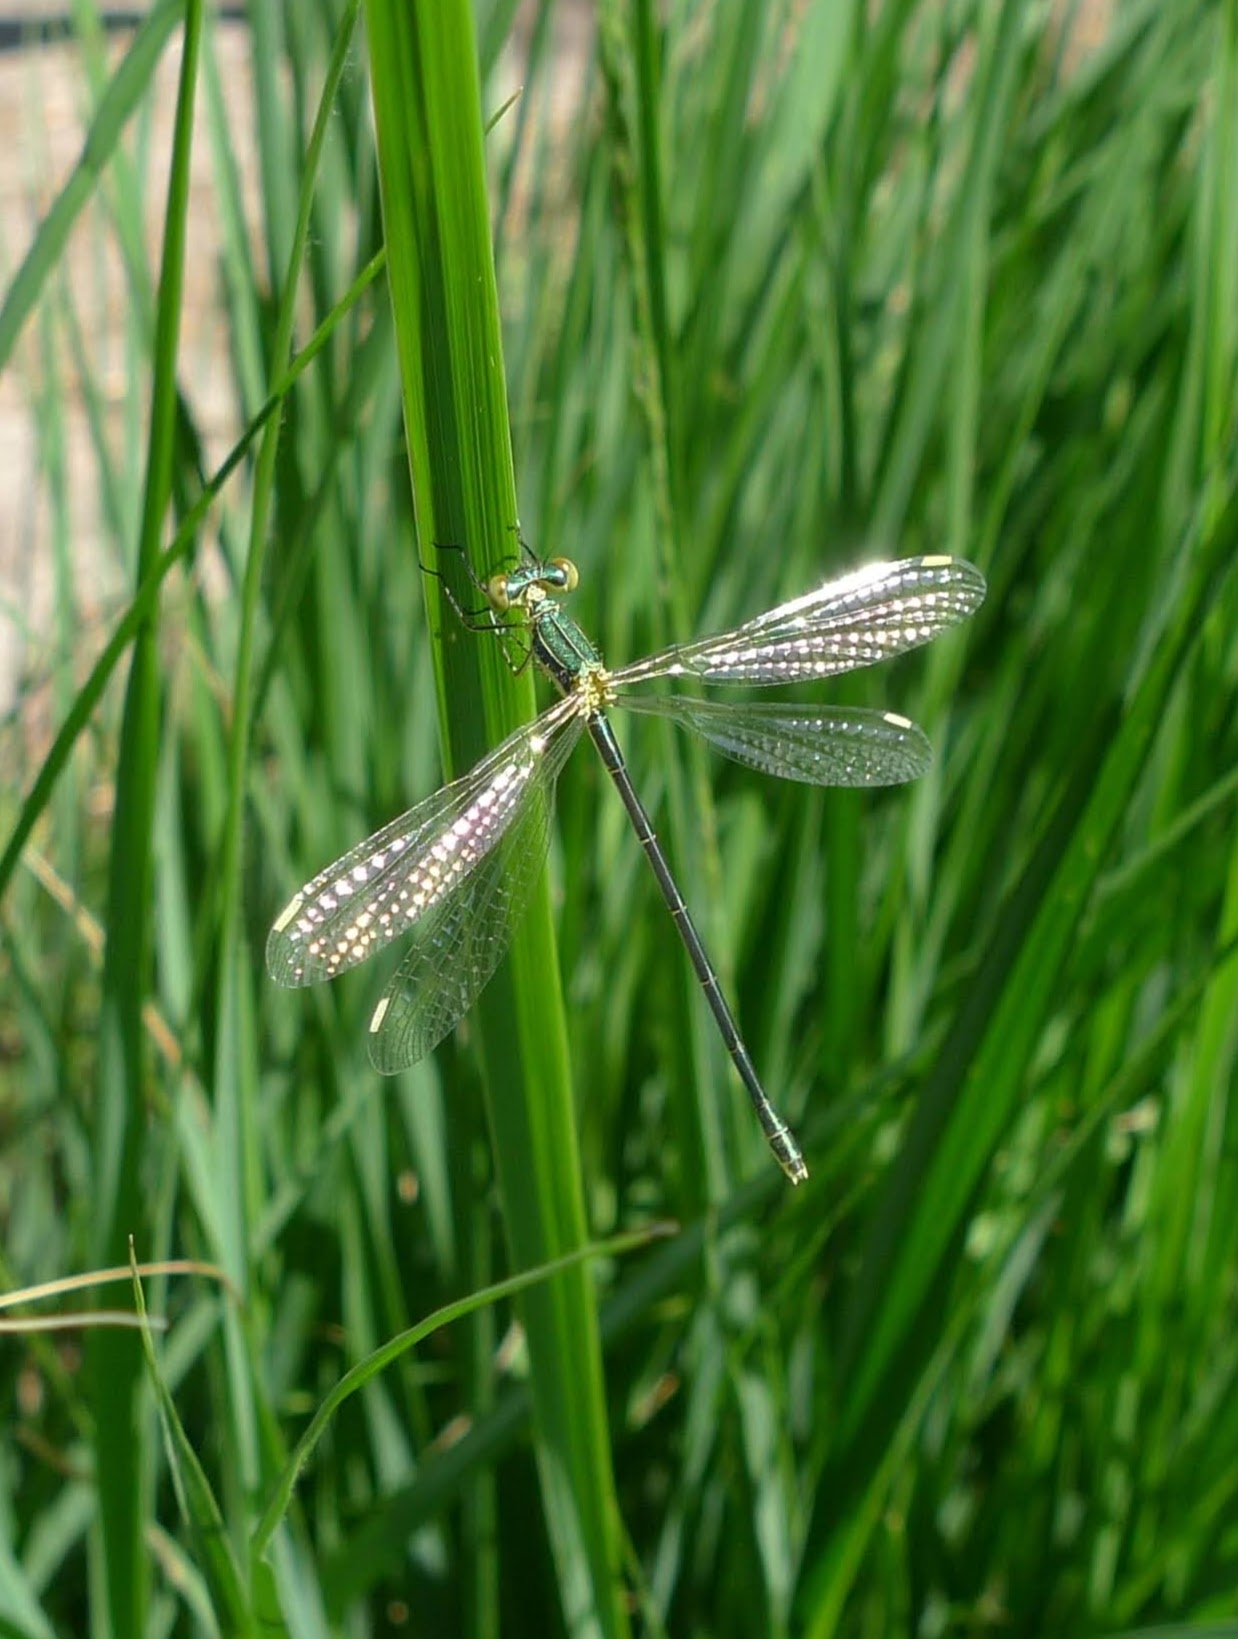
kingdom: Animalia
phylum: Arthropoda
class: Insecta
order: Odonata
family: Lestidae
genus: Lestes
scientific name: Lestes virens
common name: Small emerald spreadwing
